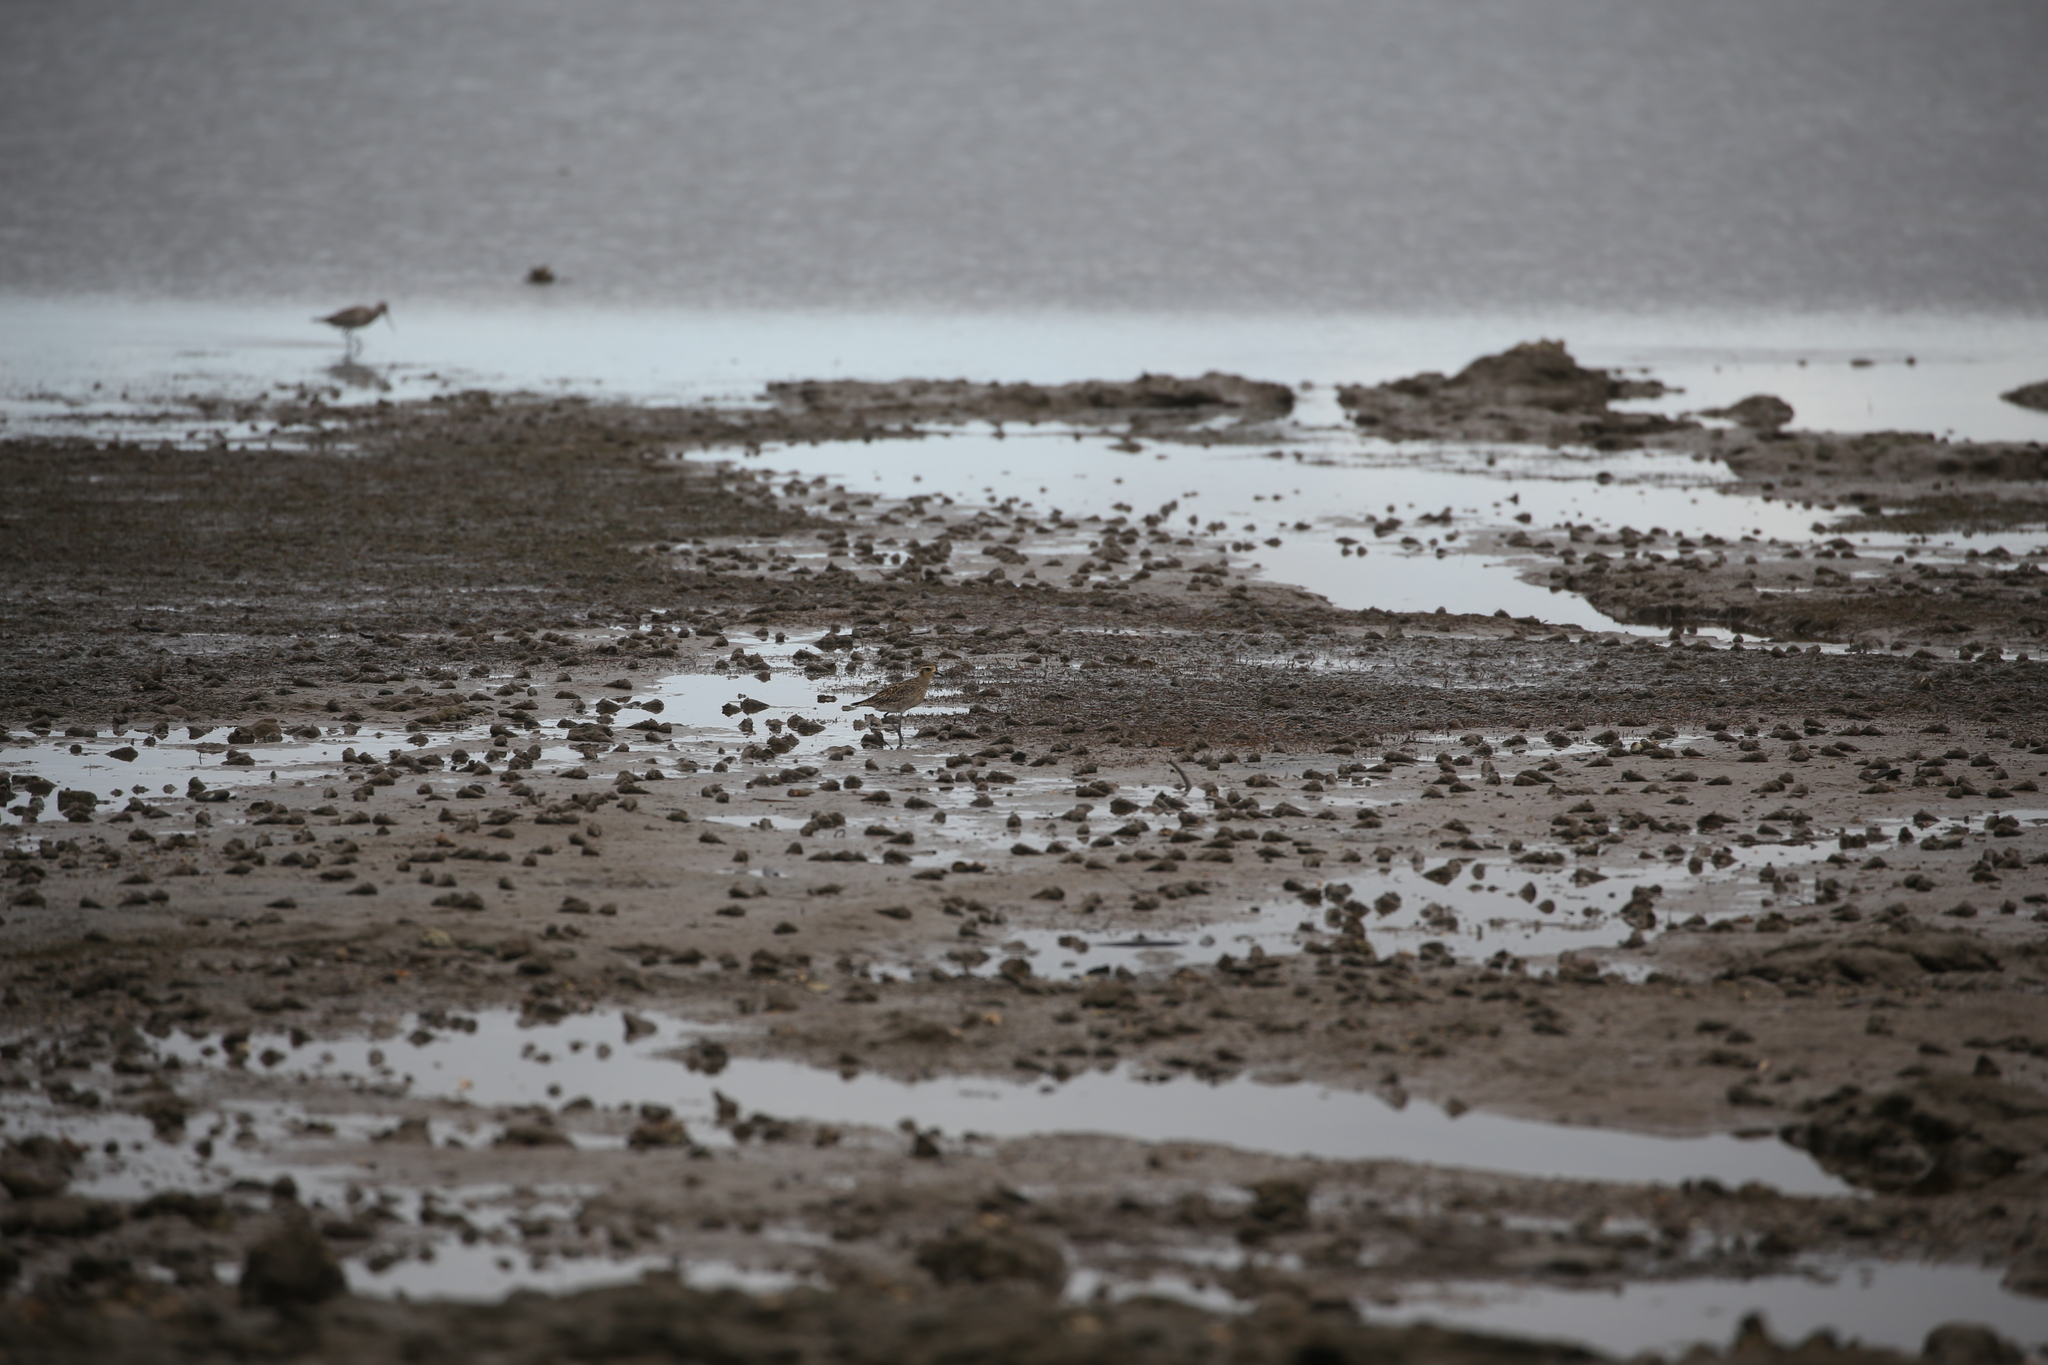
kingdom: Animalia
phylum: Chordata
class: Aves
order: Charadriiformes
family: Charadriidae
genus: Pluvialis
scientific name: Pluvialis fulva
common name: Pacific golden plover
